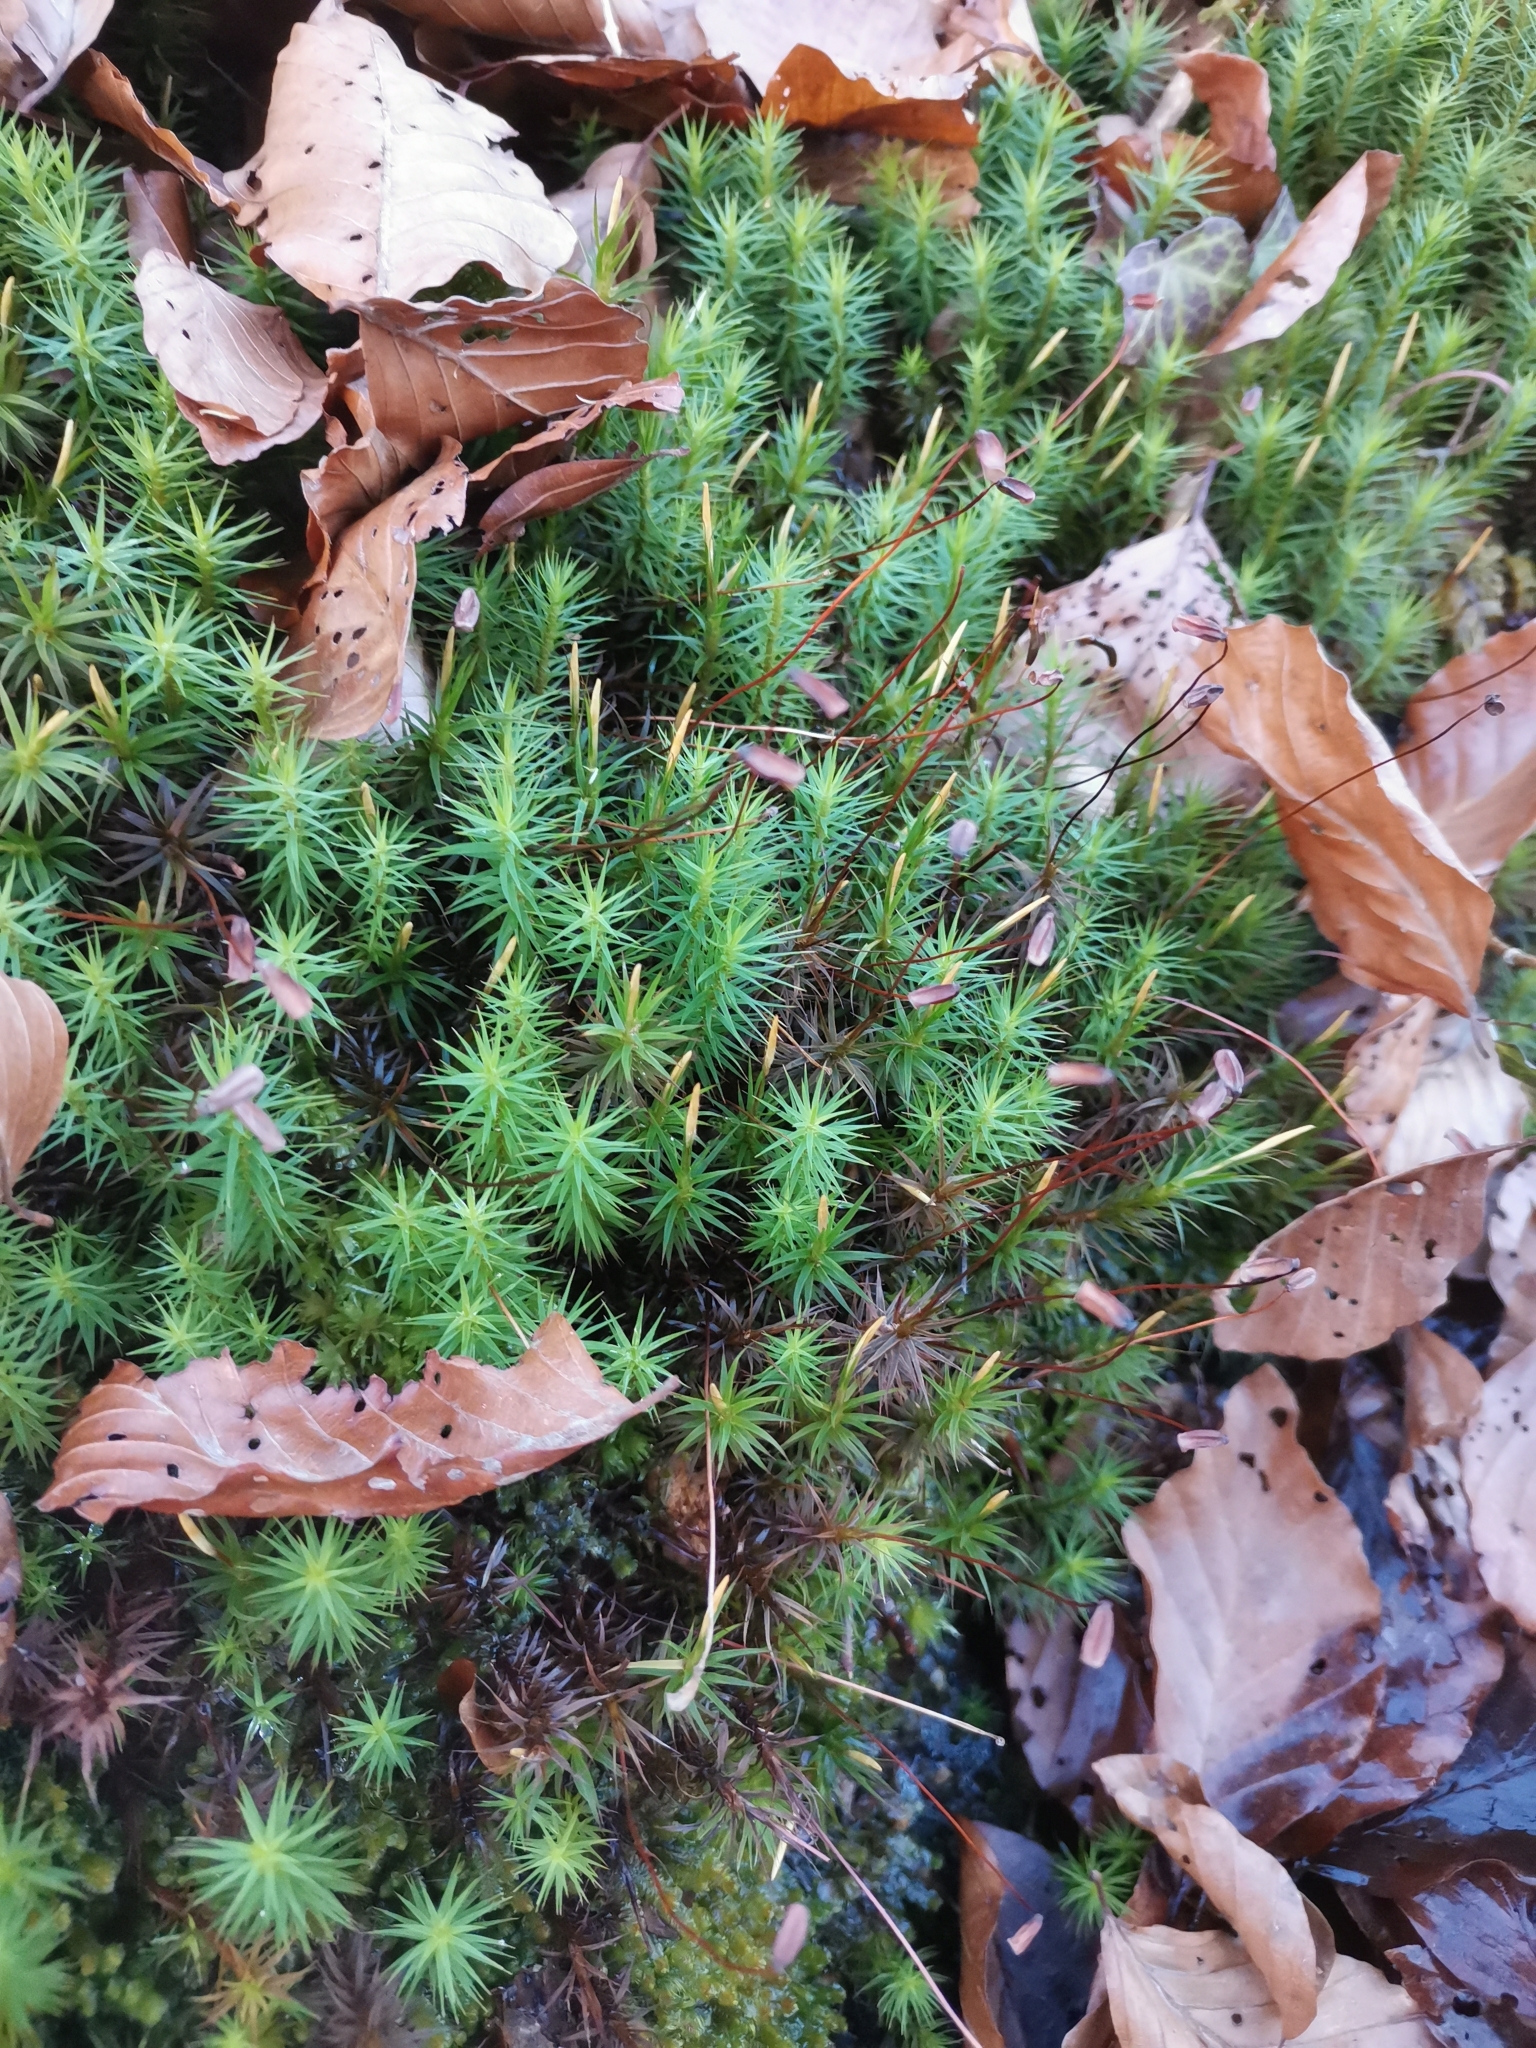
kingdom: Plantae
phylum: Bryophyta
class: Polytrichopsida
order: Polytrichales
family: Polytrichaceae
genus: Polytrichum
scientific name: Polytrichum formosum
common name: Bank haircap moss
